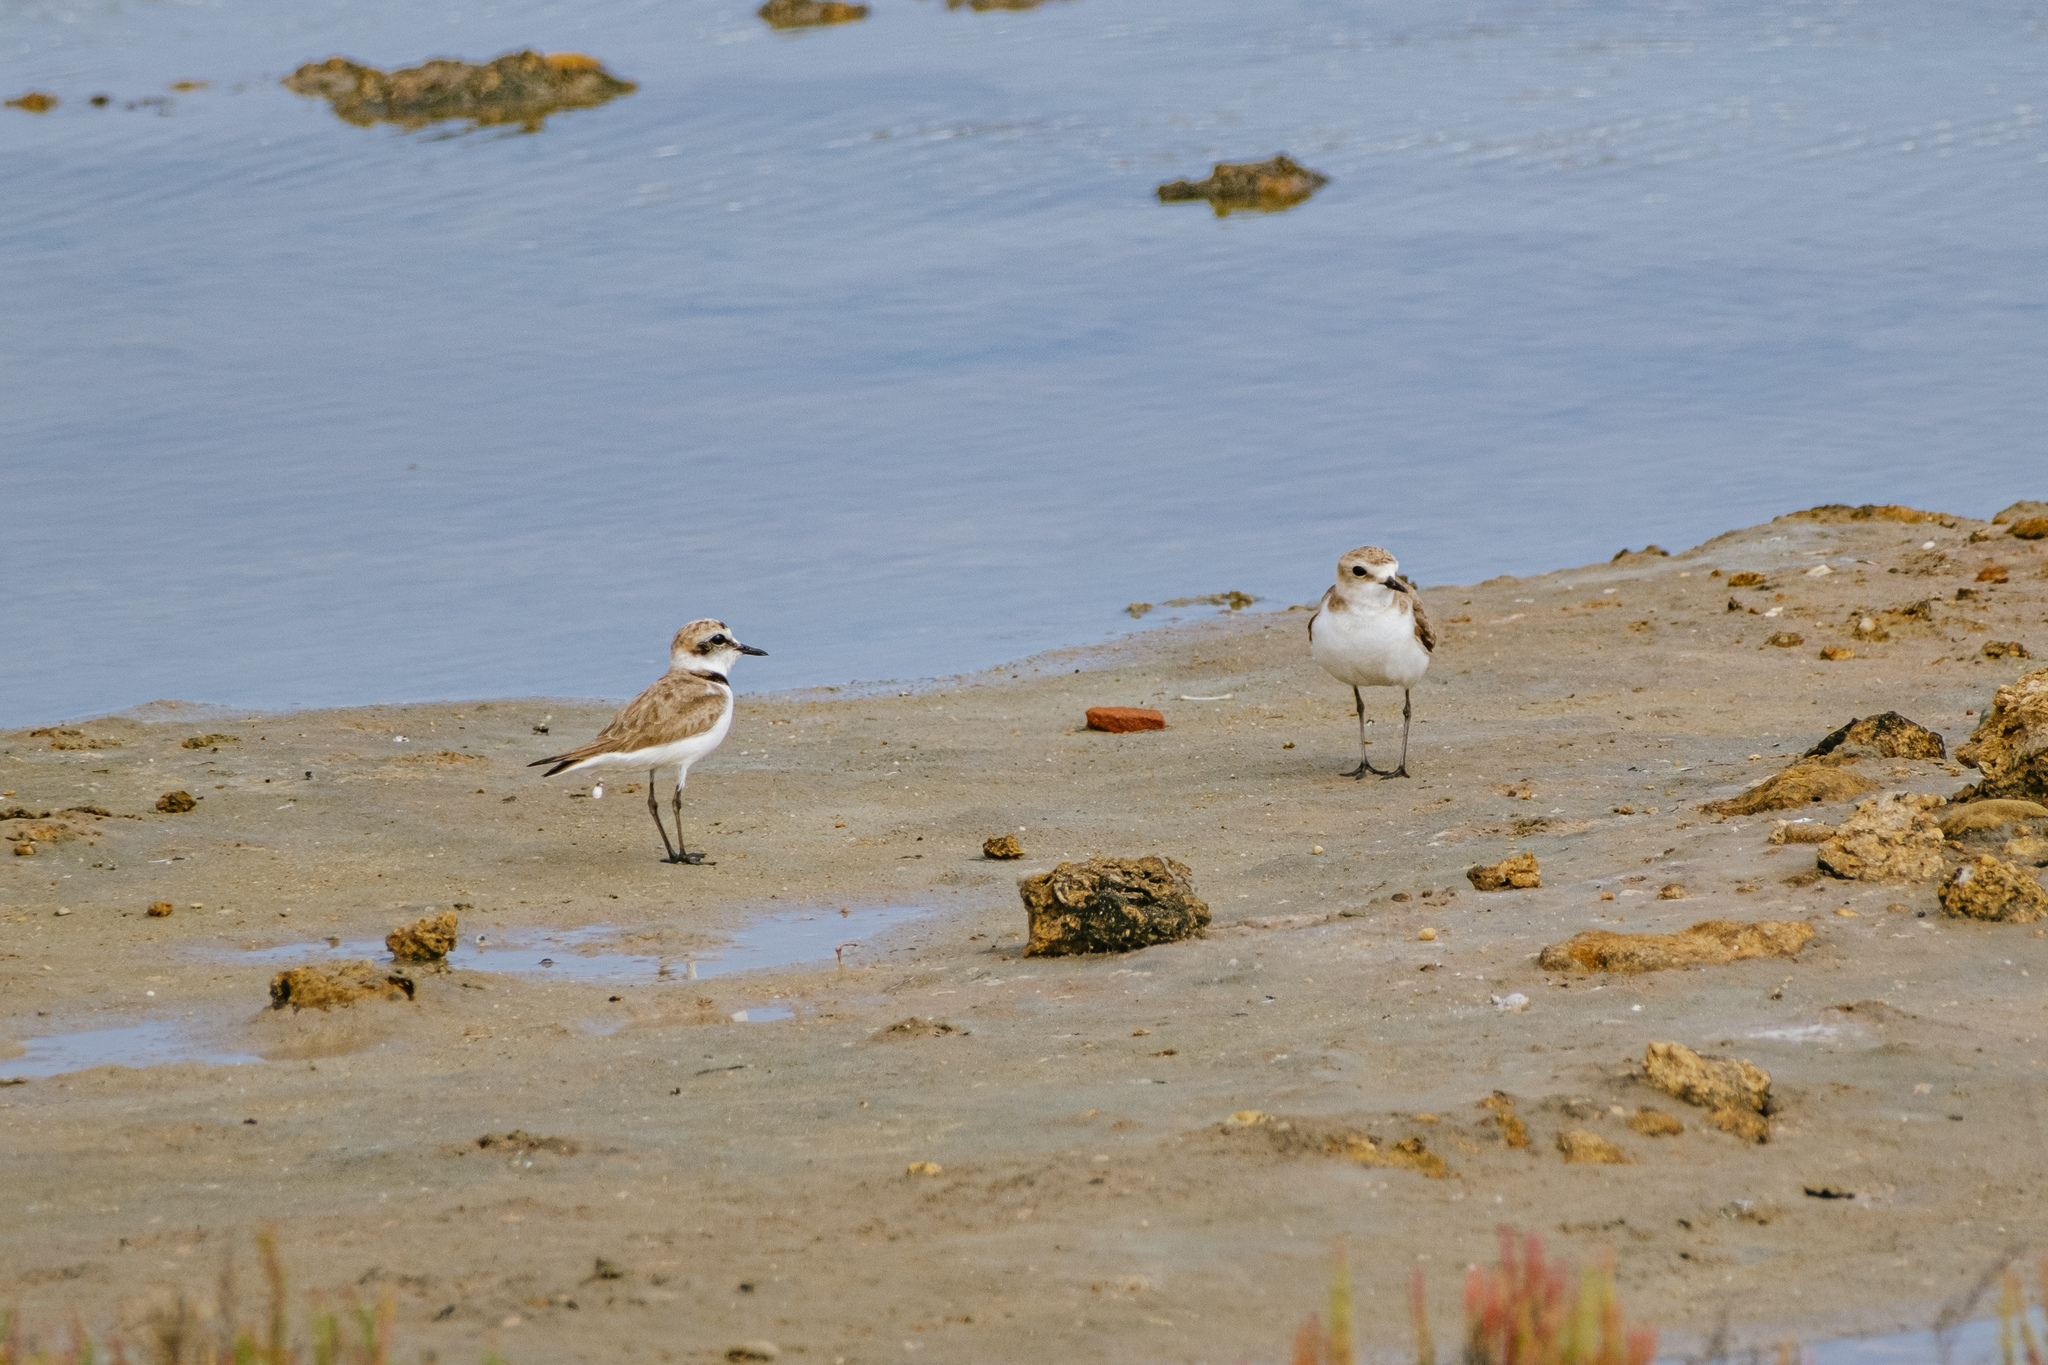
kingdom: Animalia
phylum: Chordata
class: Aves
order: Charadriiformes
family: Charadriidae
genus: Charadrius
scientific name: Charadrius alexandrinus
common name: Kentish plover
